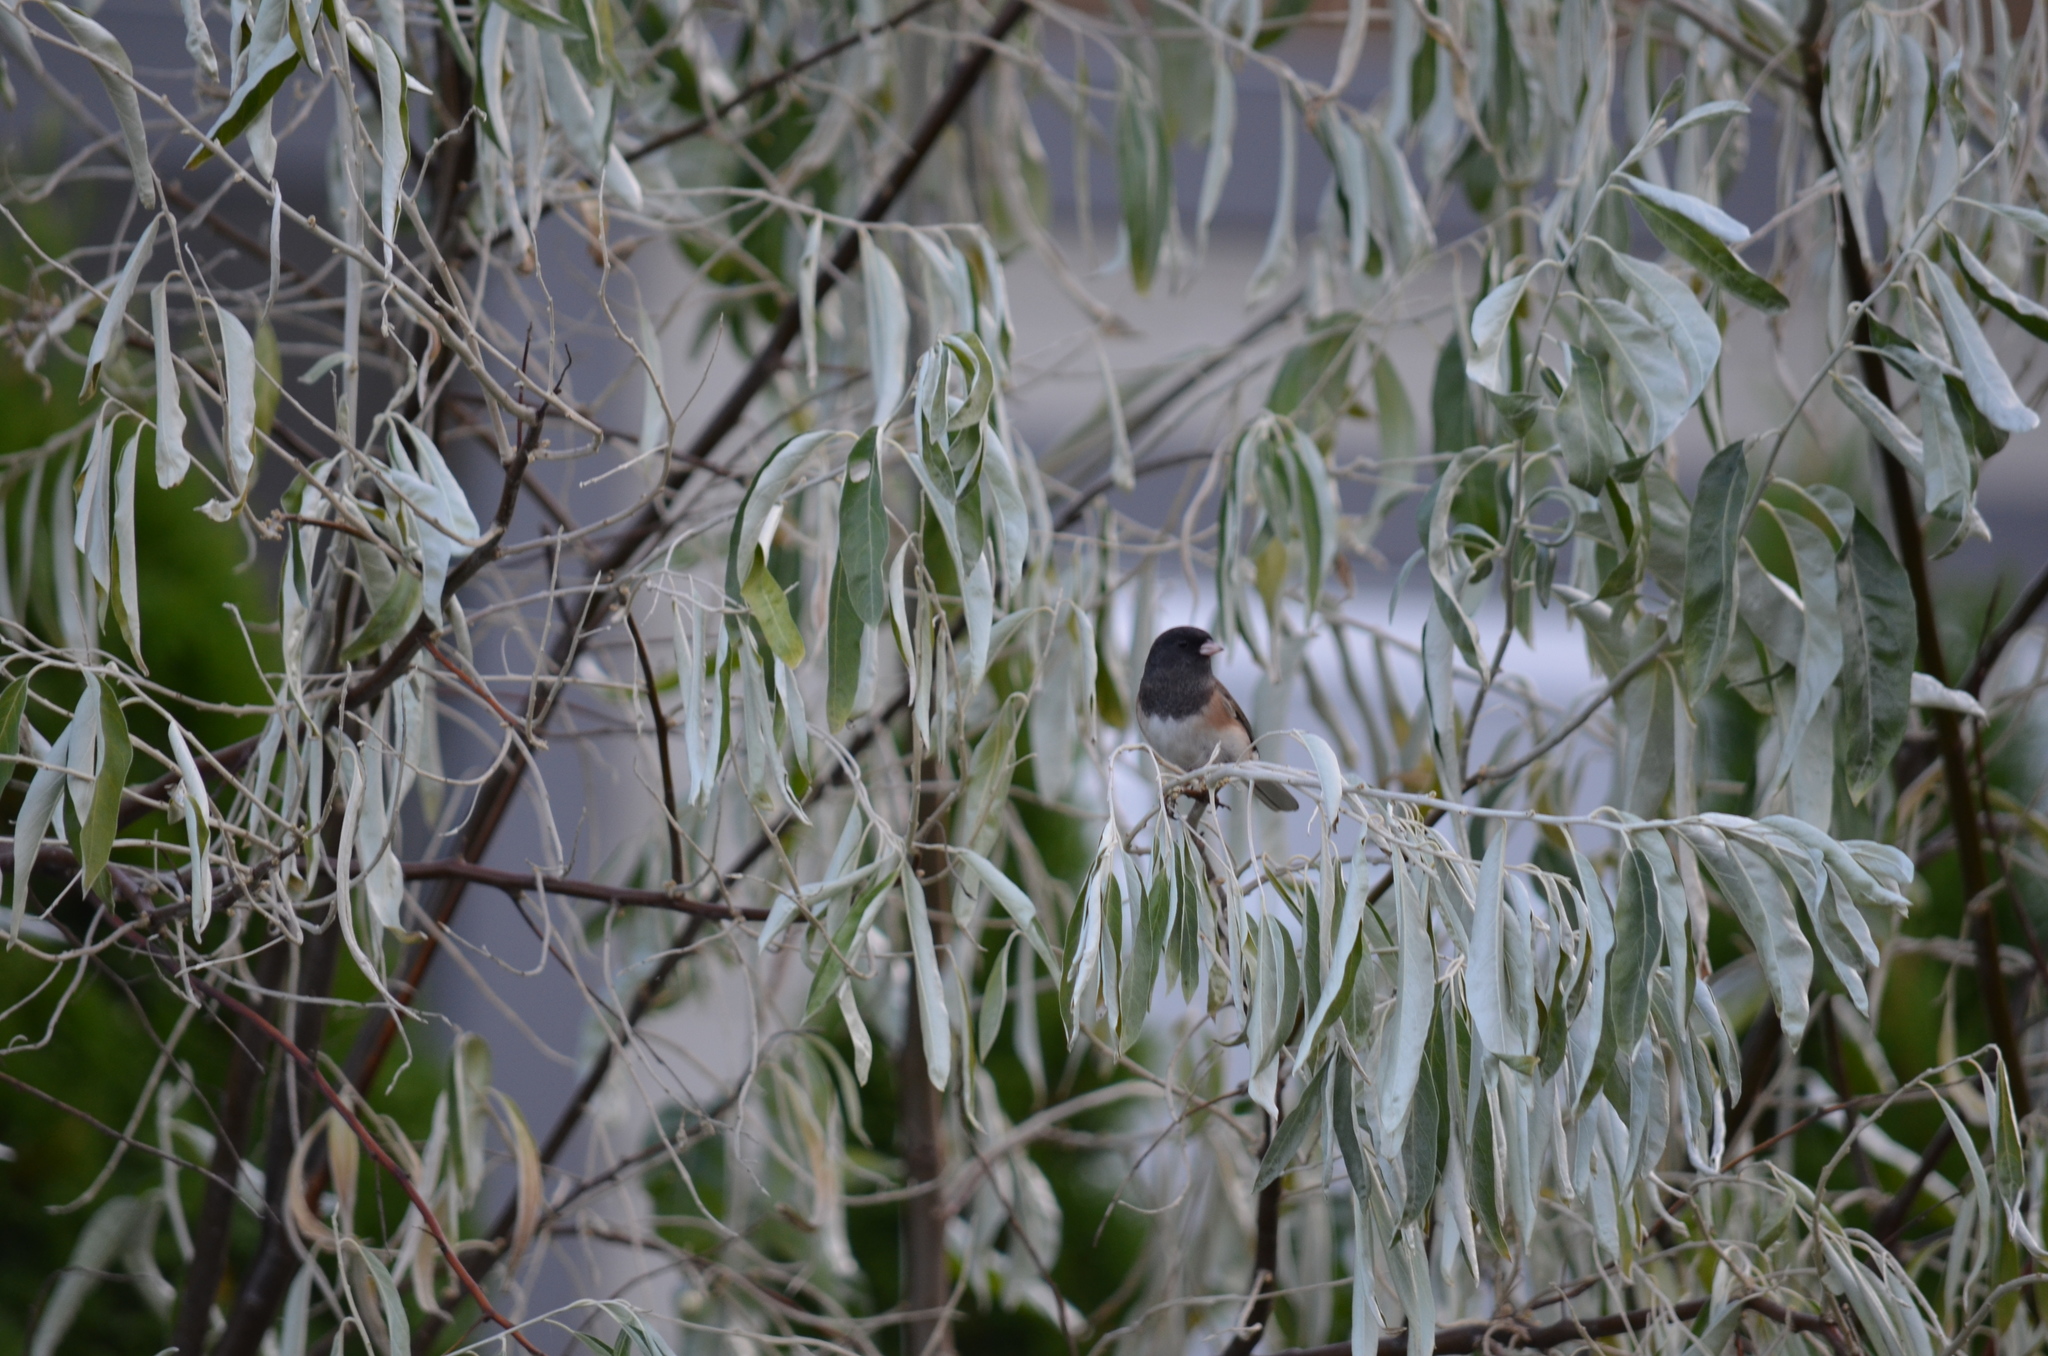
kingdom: Animalia
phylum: Chordata
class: Aves
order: Passeriformes
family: Passerellidae
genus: Junco
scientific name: Junco hyemalis
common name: Dark-eyed junco
